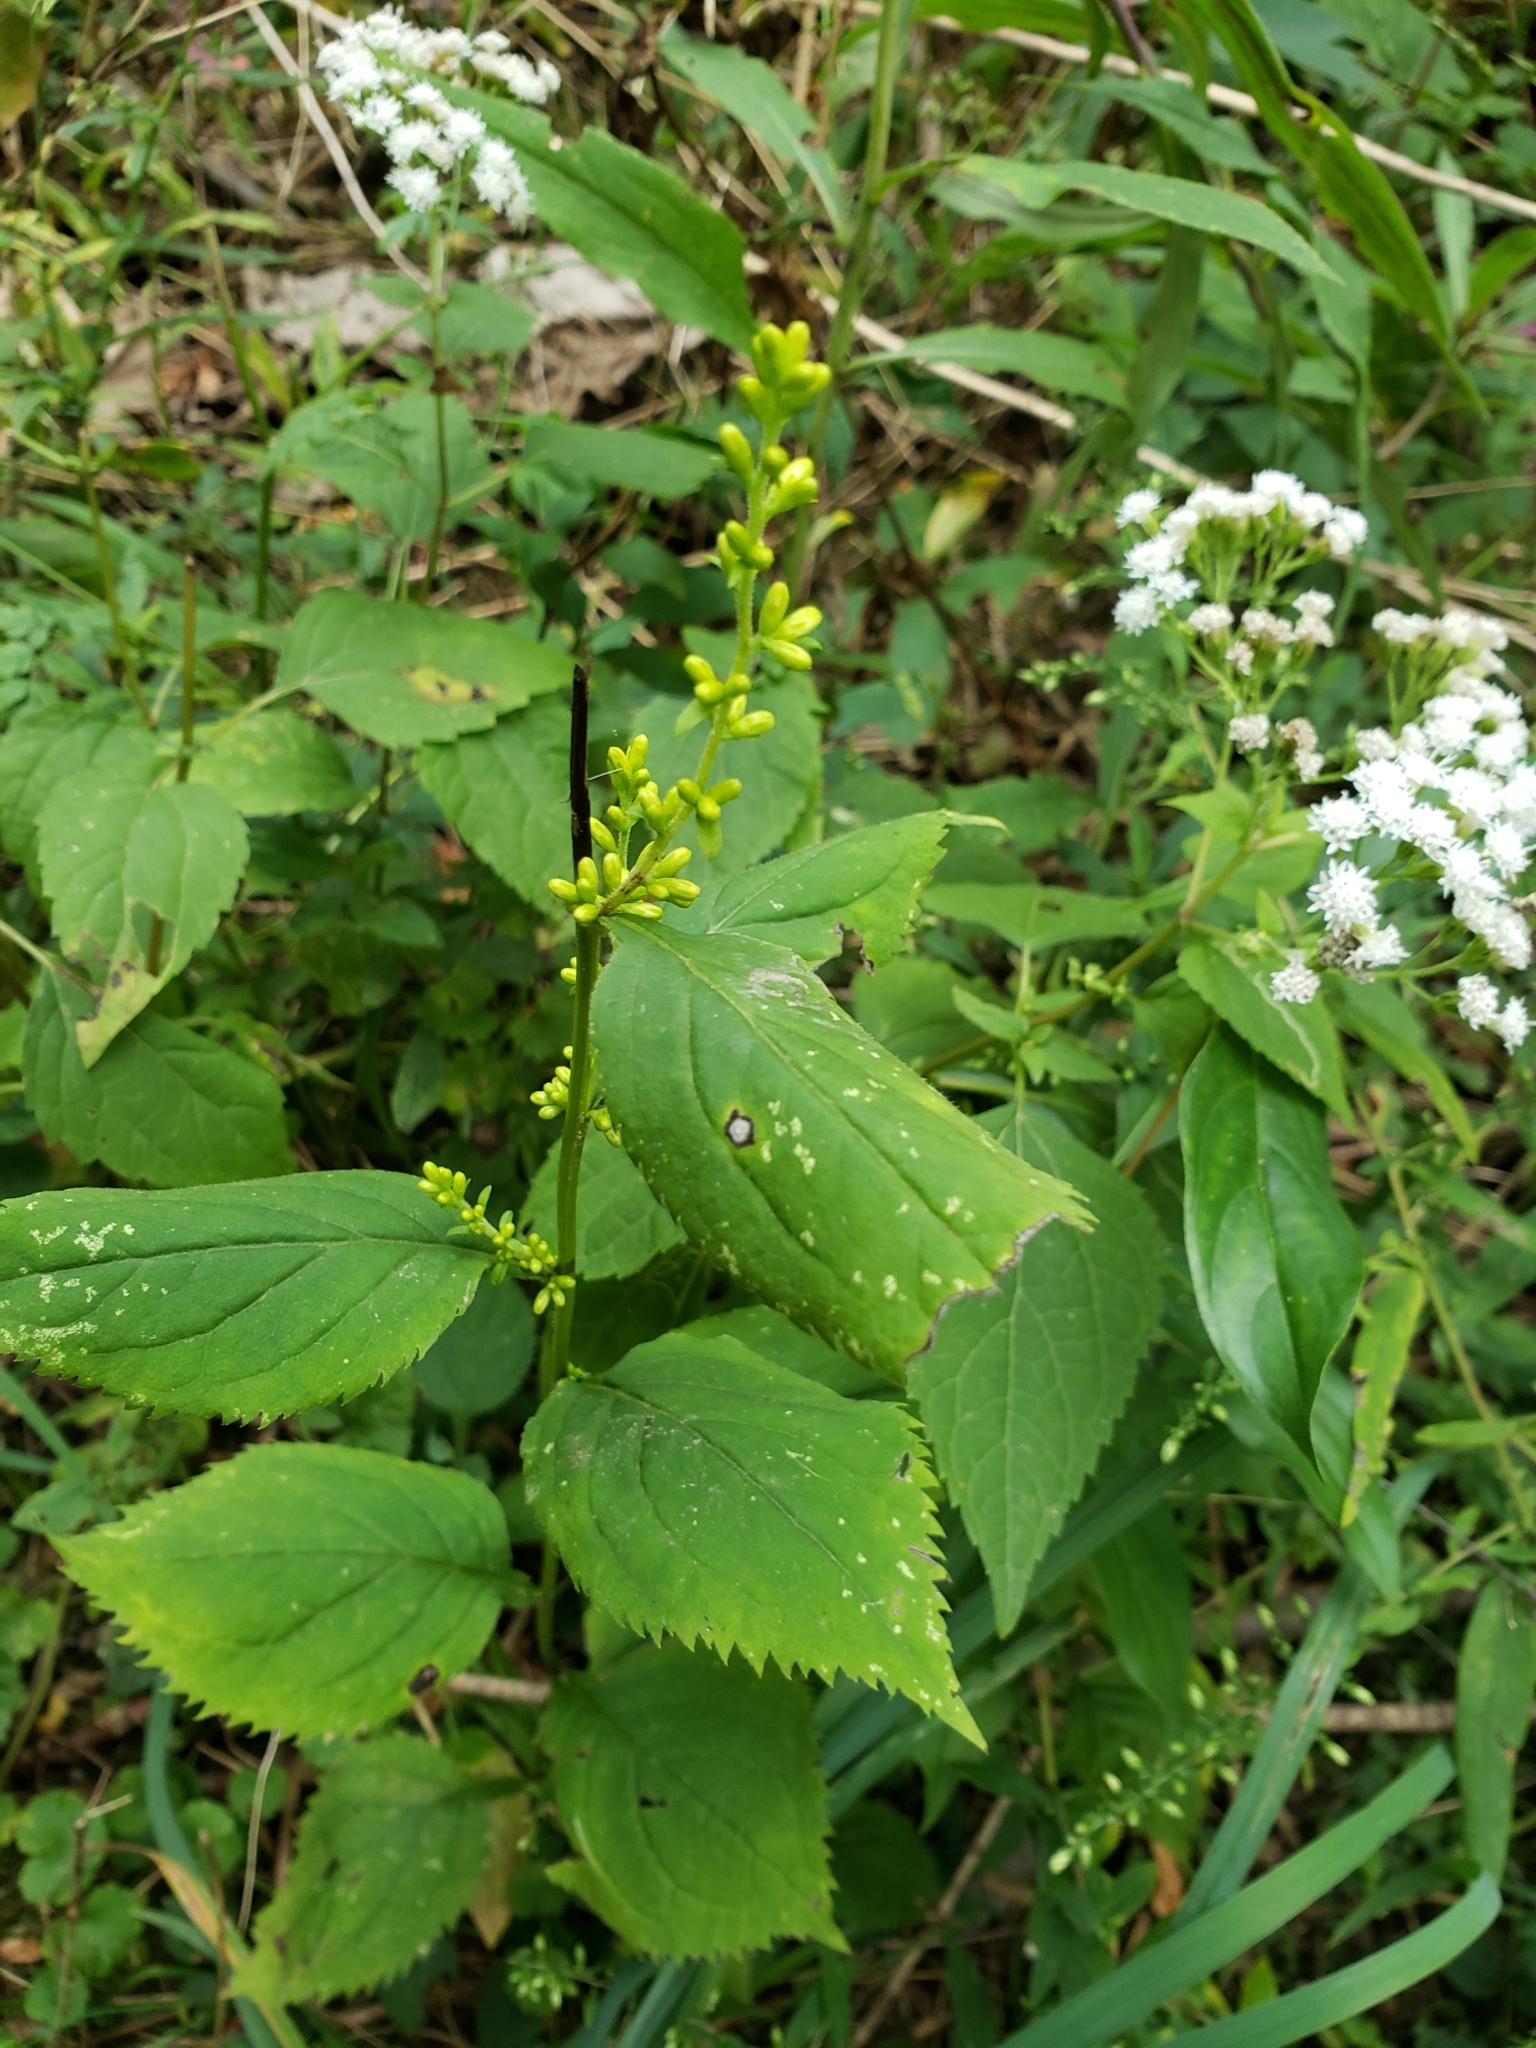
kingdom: Plantae
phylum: Tracheophyta
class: Magnoliopsida
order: Asterales
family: Asteraceae
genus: Solidago
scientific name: Solidago flexicaulis
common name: Zig-zag goldenrod
